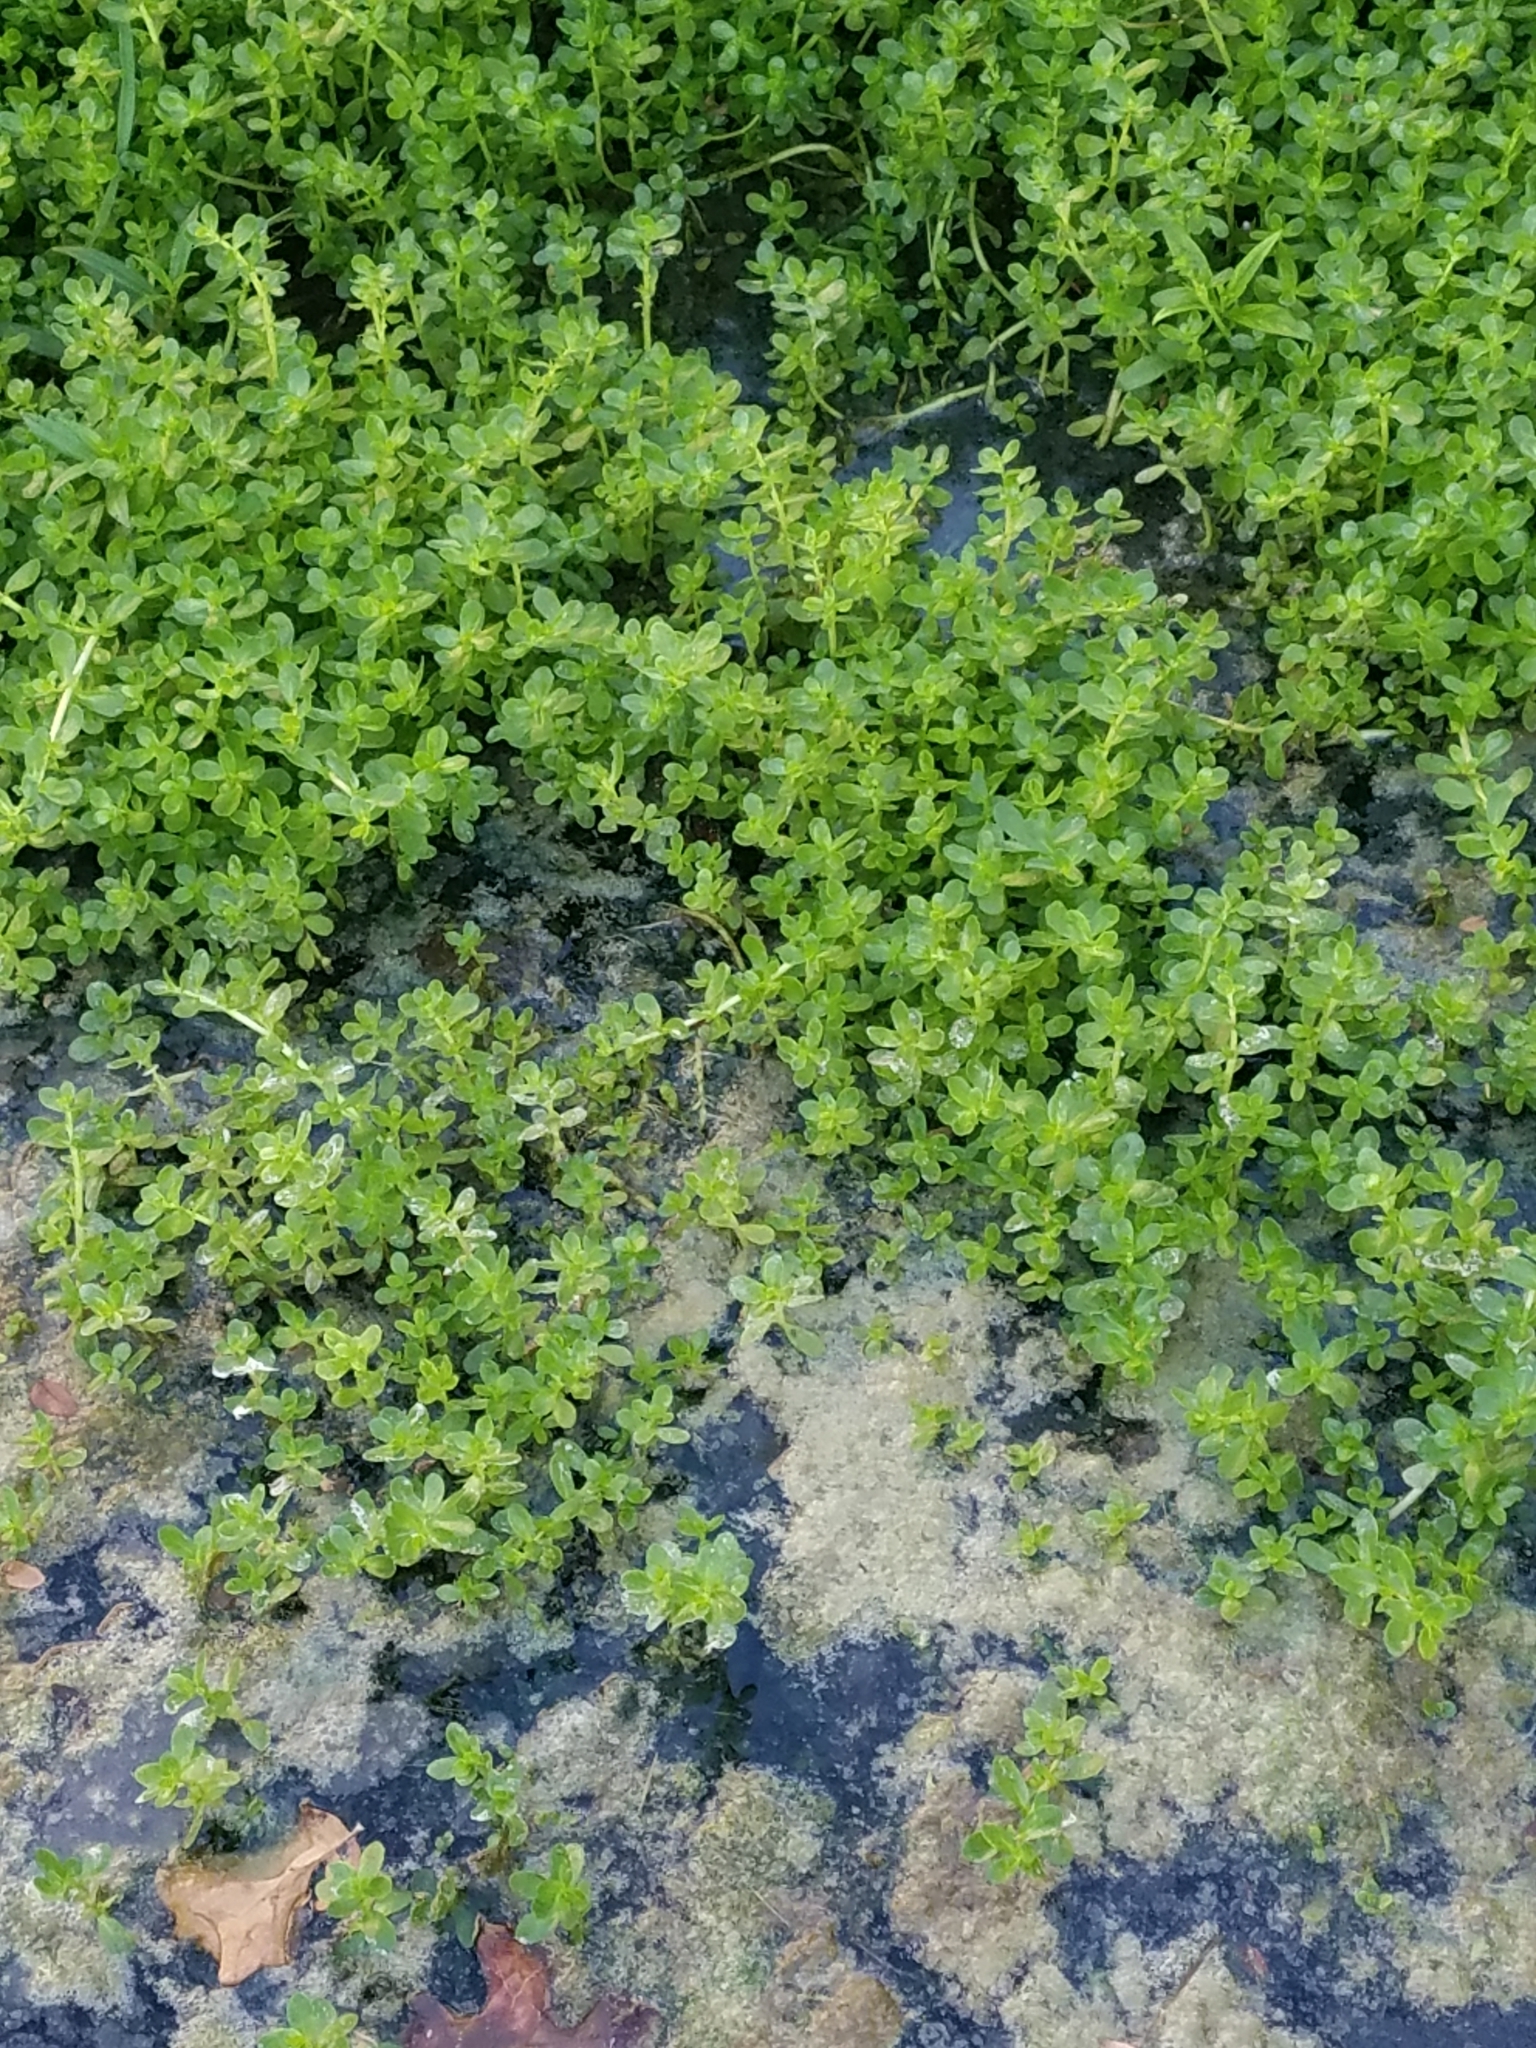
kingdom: Plantae
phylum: Tracheophyta
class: Magnoliopsida
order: Lamiales
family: Plantaginaceae
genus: Bacopa
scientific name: Bacopa monnieri
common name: Indian-pennywort
